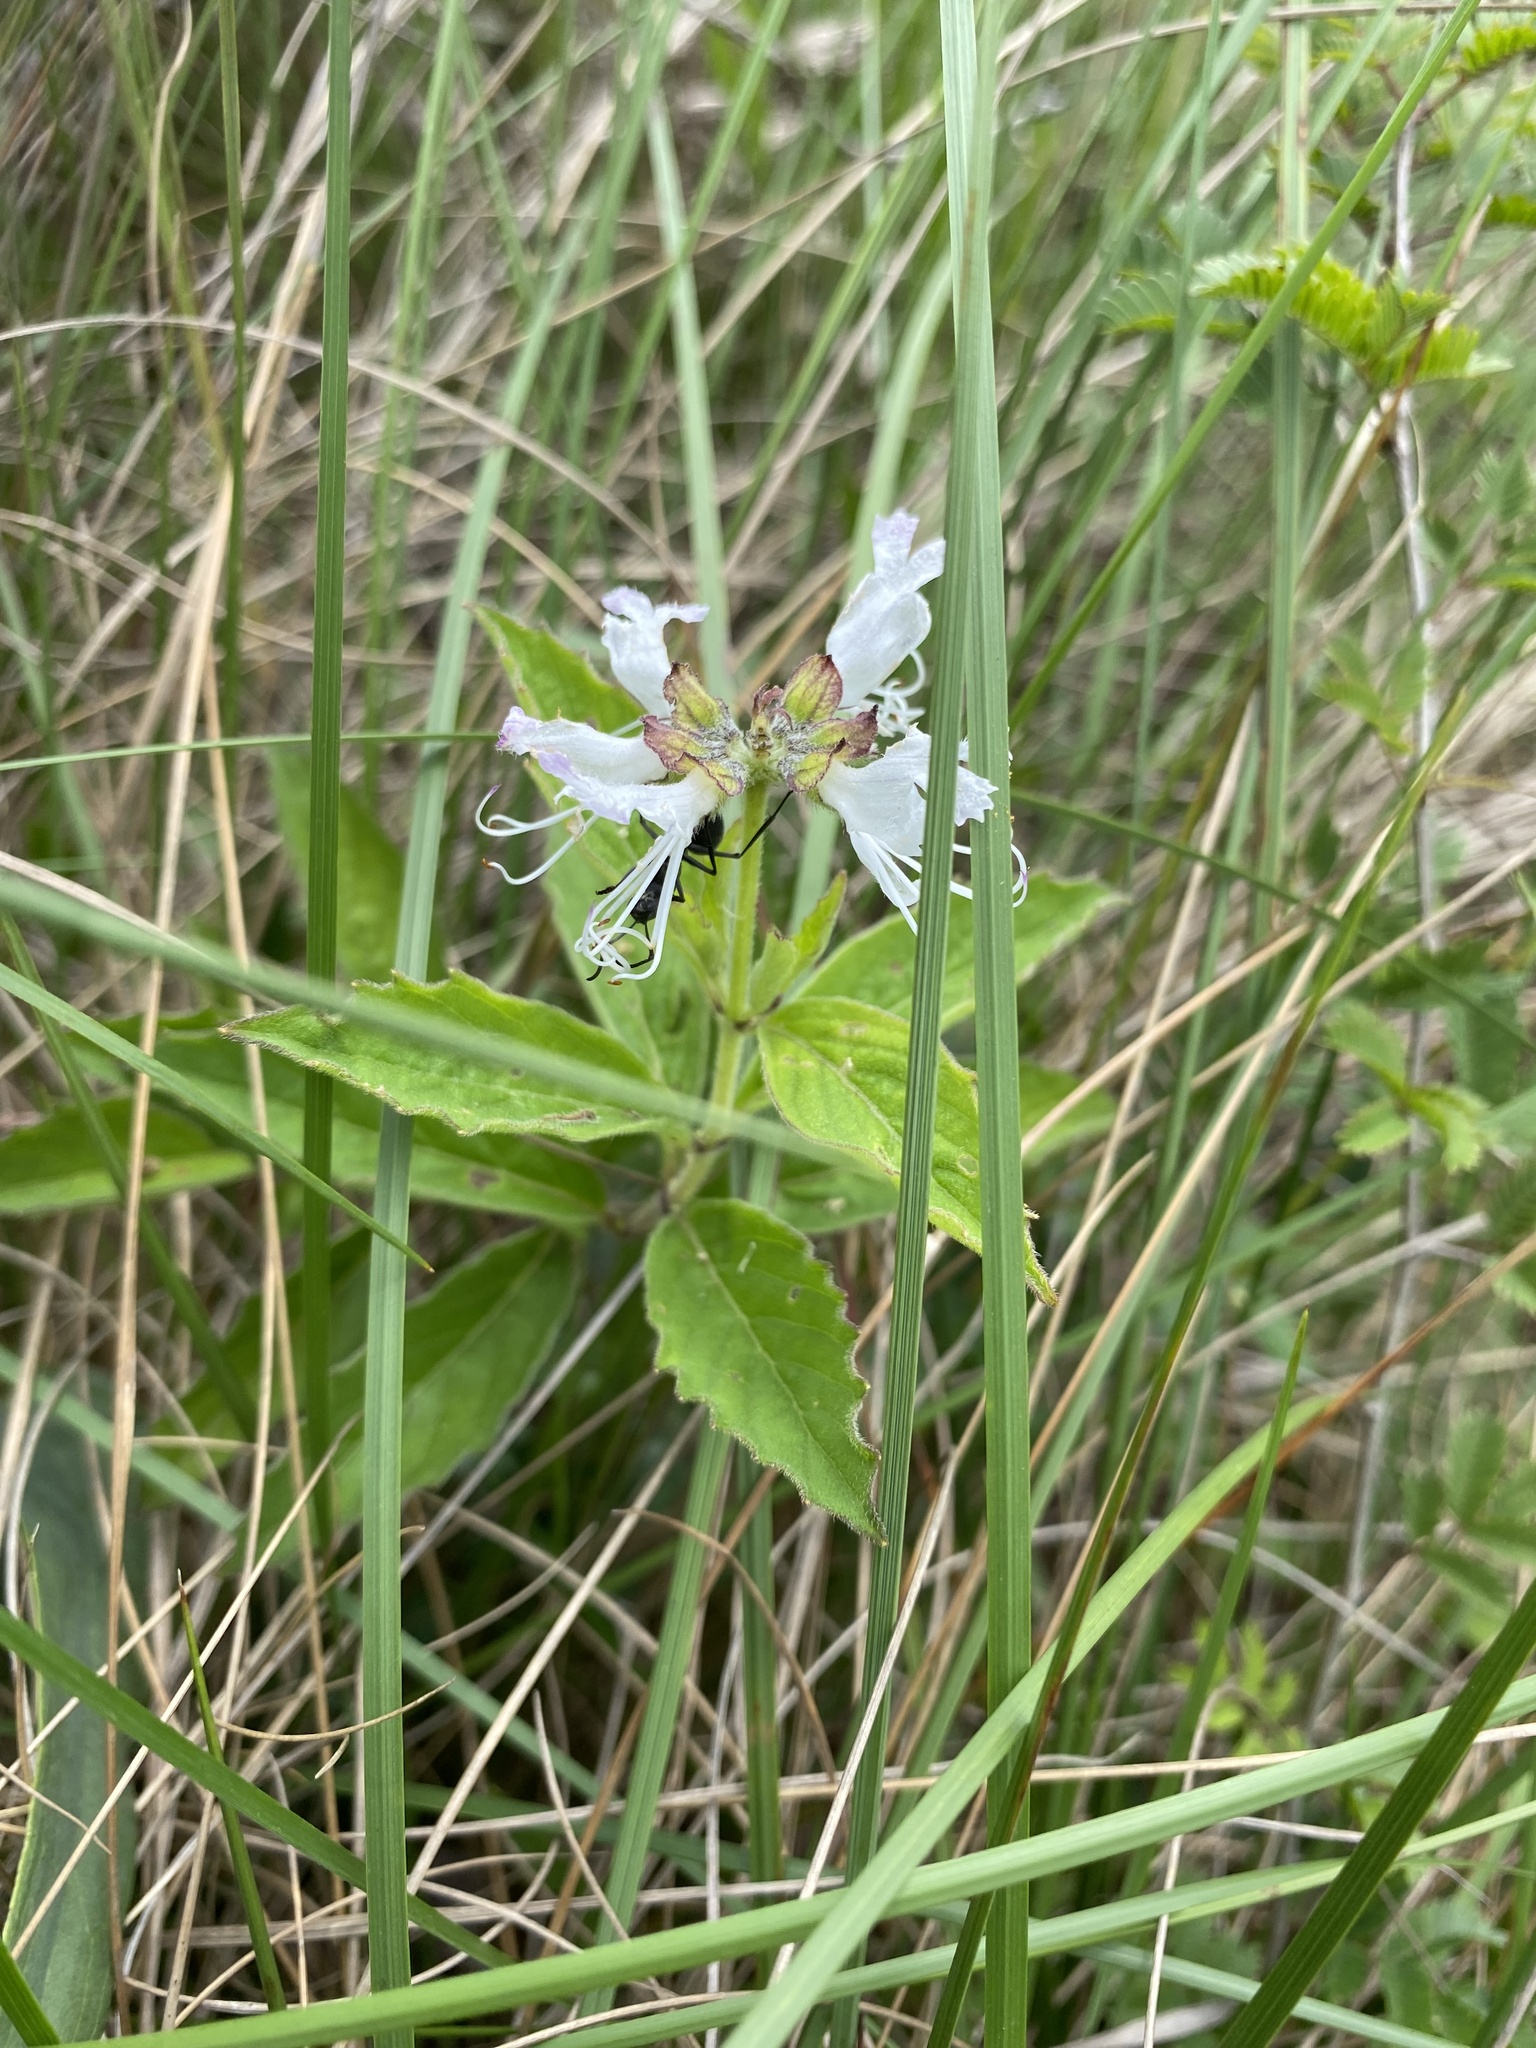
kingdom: Plantae
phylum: Tracheophyta
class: Magnoliopsida
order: Lamiales
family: Lamiaceae
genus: Ocimum
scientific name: Ocimum obovatum
